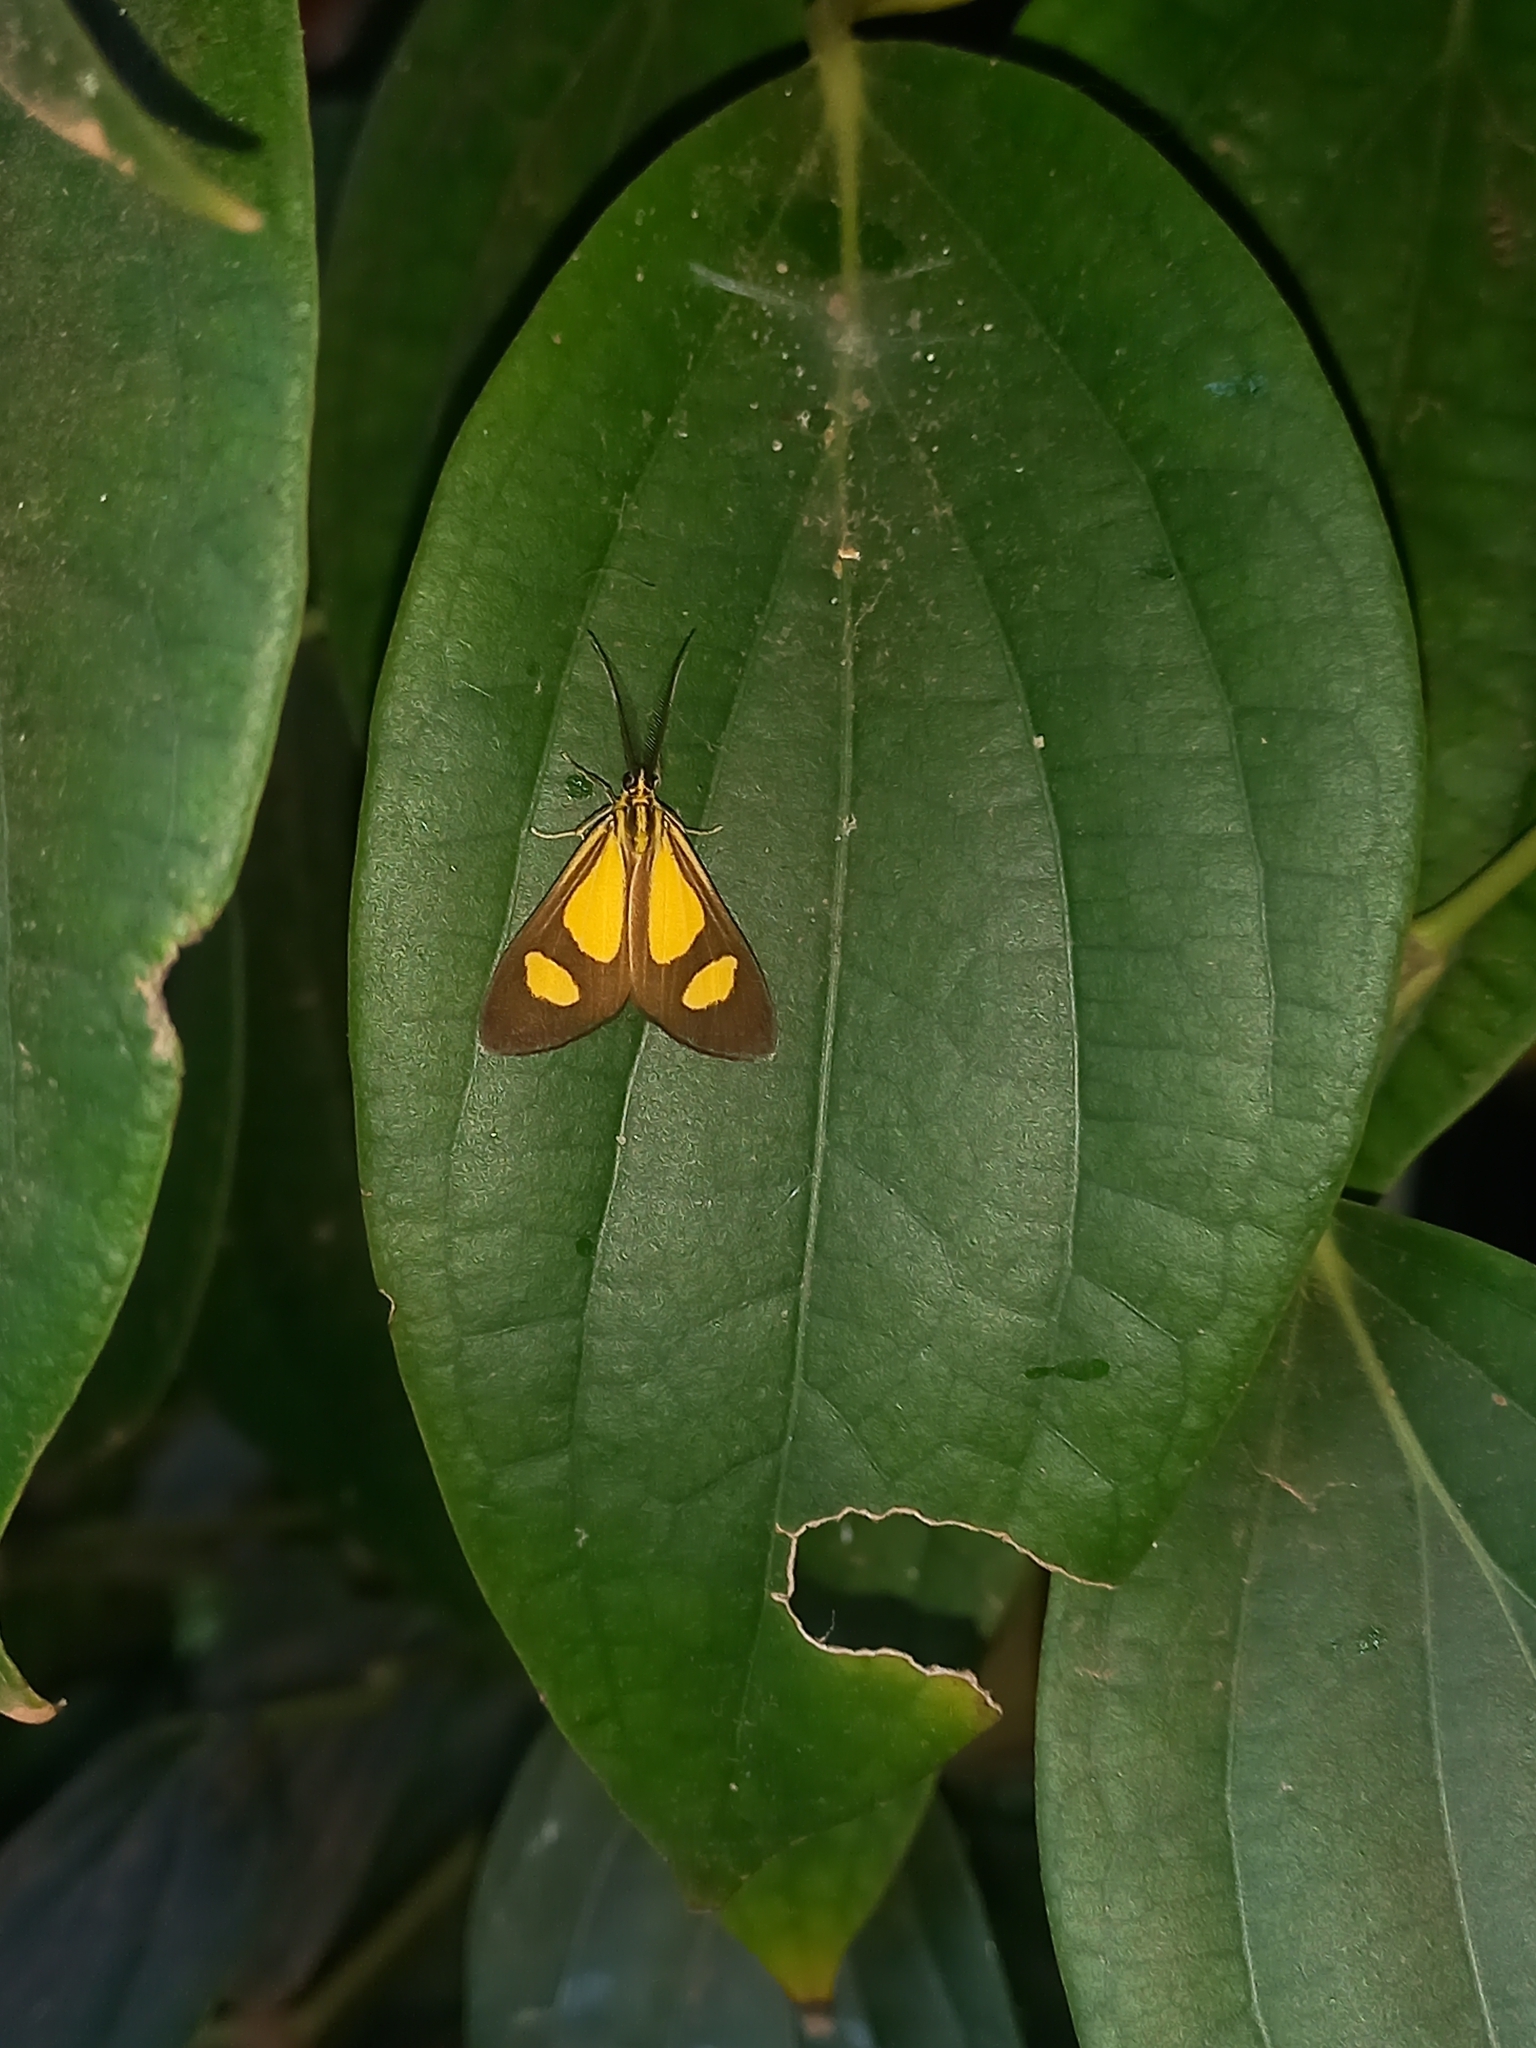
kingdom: Animalia
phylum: Arthropoda
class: Insecta
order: Lepidoptera
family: Notodontidae
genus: Phaeochlaena
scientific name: Phaeochlaena amazonica
